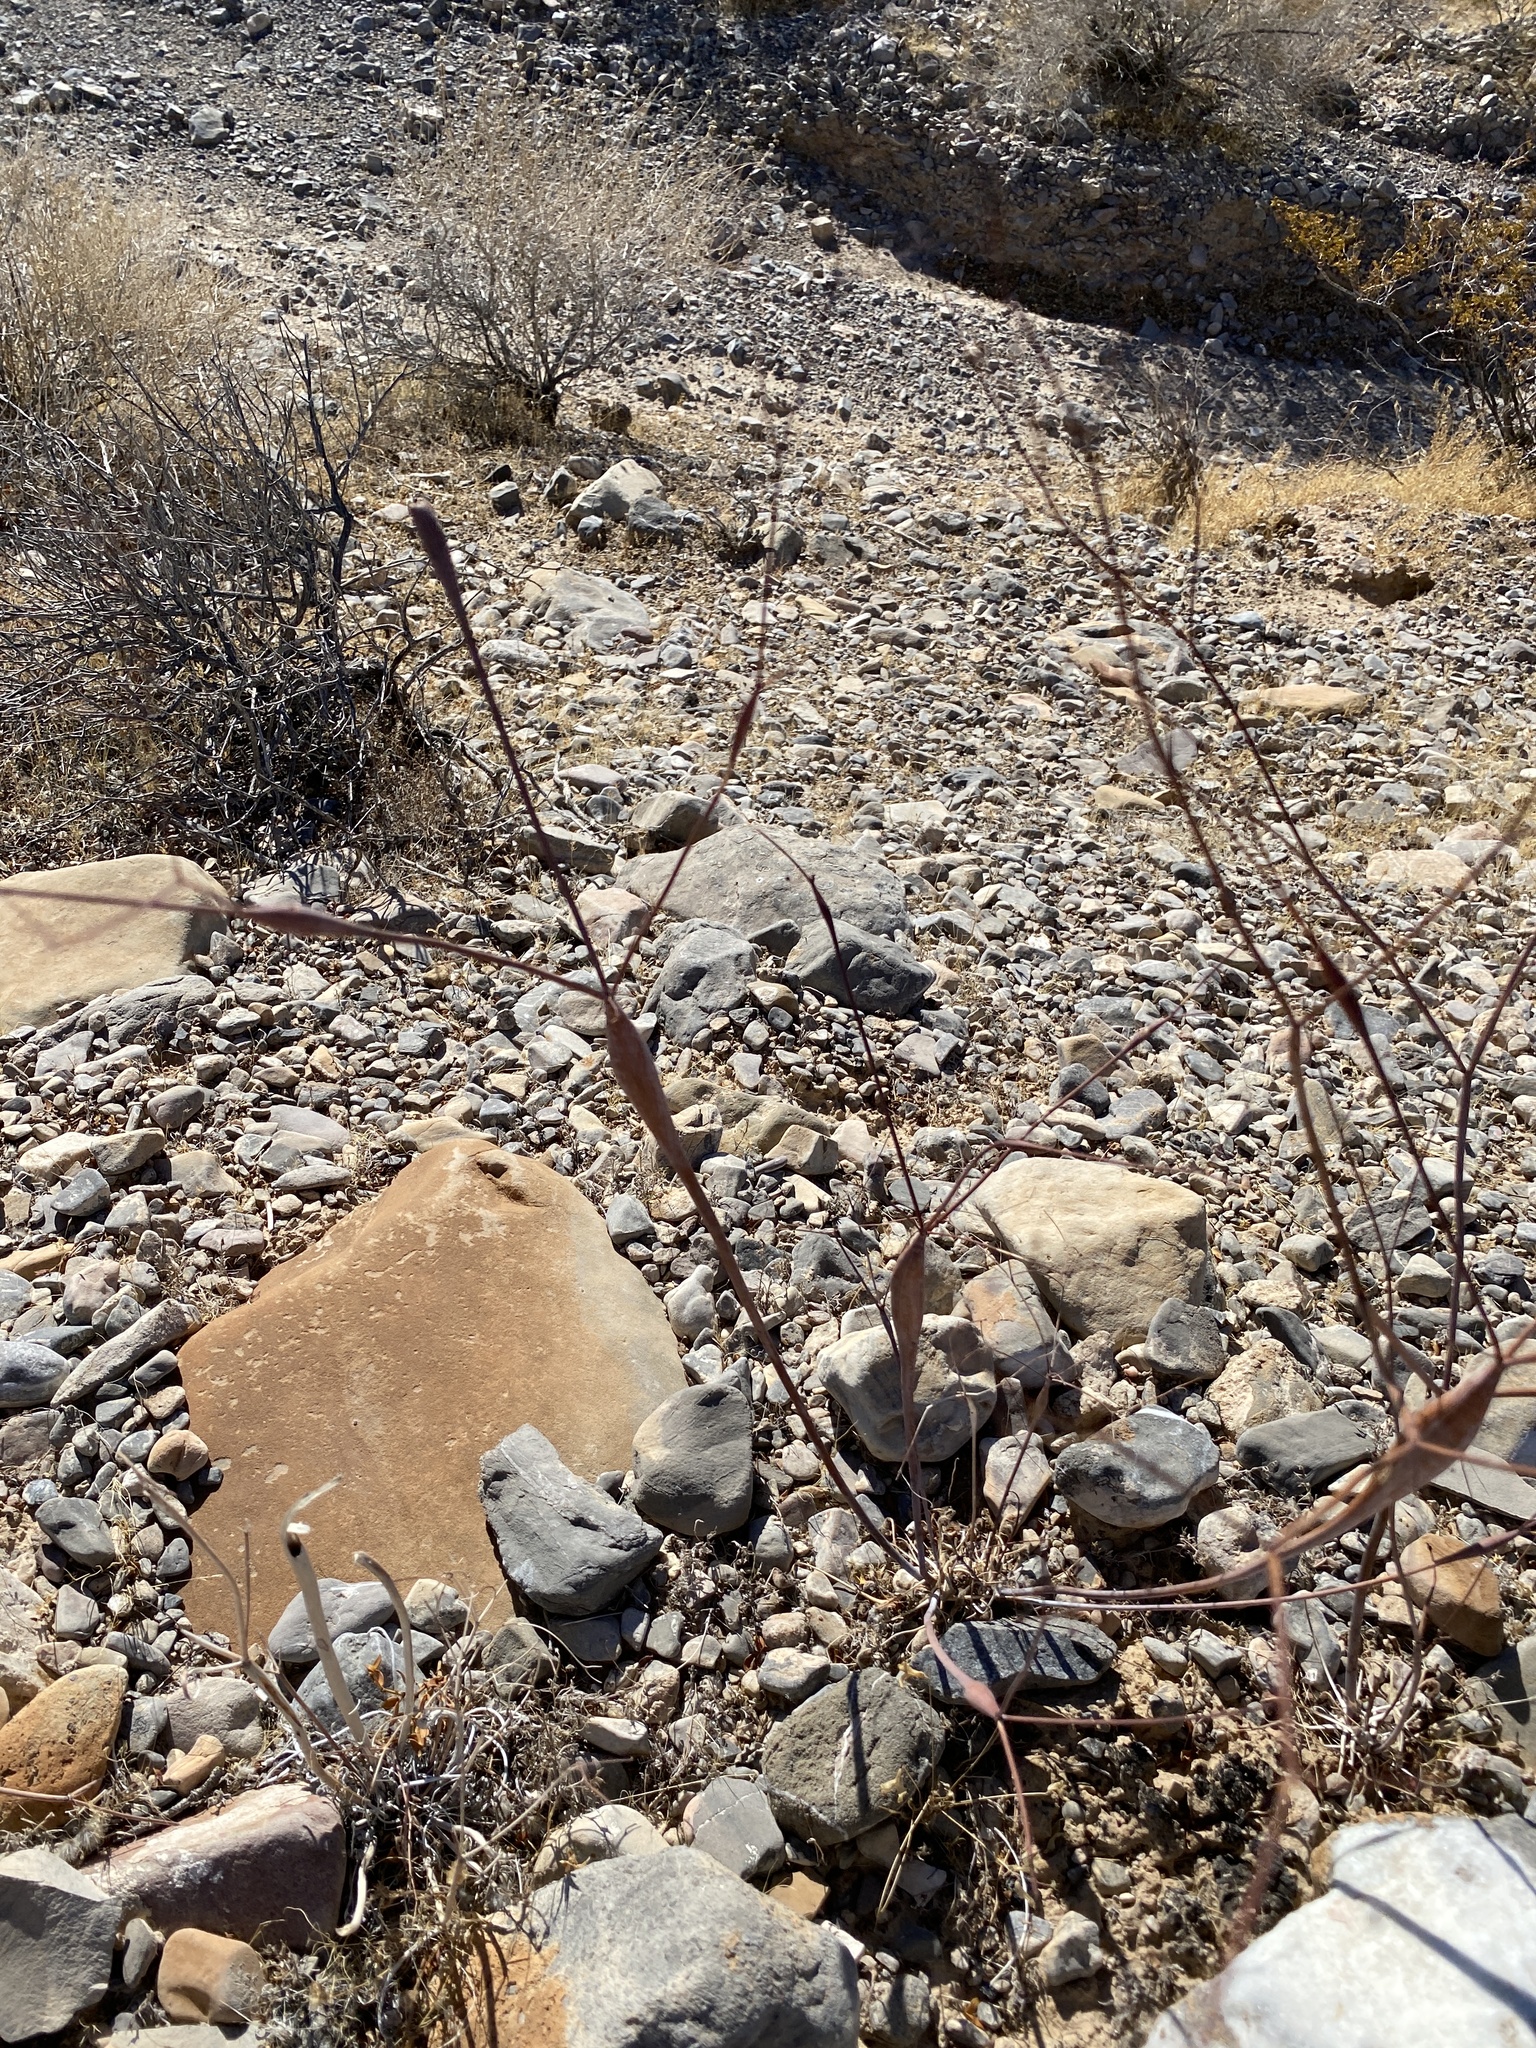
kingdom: Plantae
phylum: Tracheophyta
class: Magnoliopsida
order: Caryophyllales
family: Polygonaceae
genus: Eriogonum
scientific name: Eriogonum inflatum
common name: Desert trumpet
